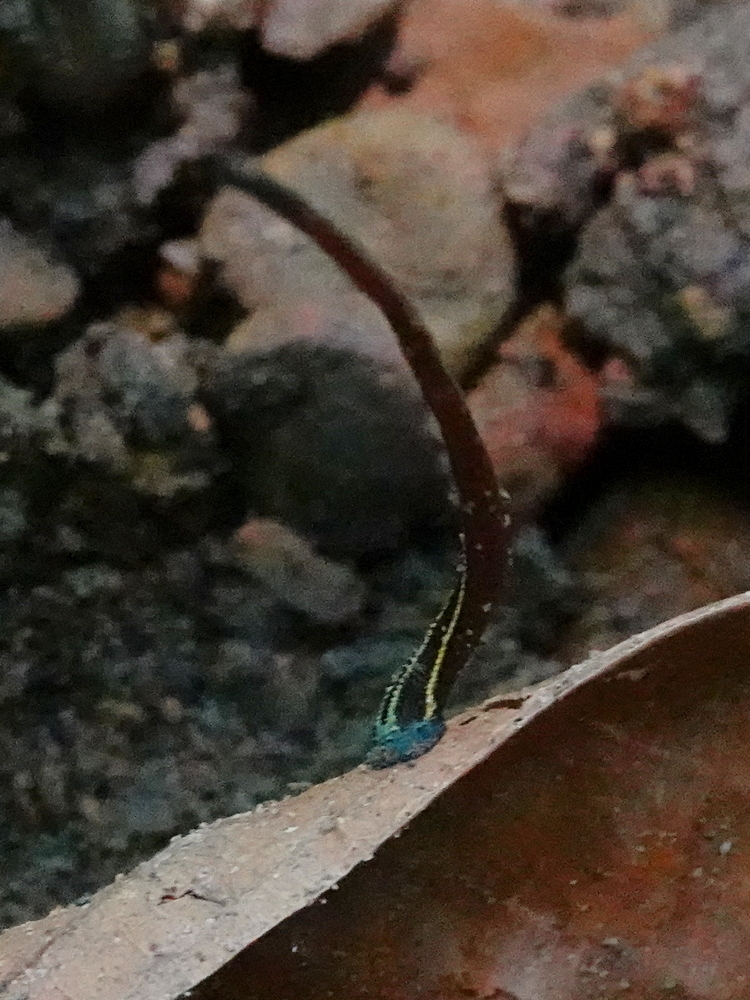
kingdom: Animalia
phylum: Annelida
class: Clitellata
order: Arhynchobdellida
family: Haemadipsidae
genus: Haemadipsa
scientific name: Haemadipsa ornata
